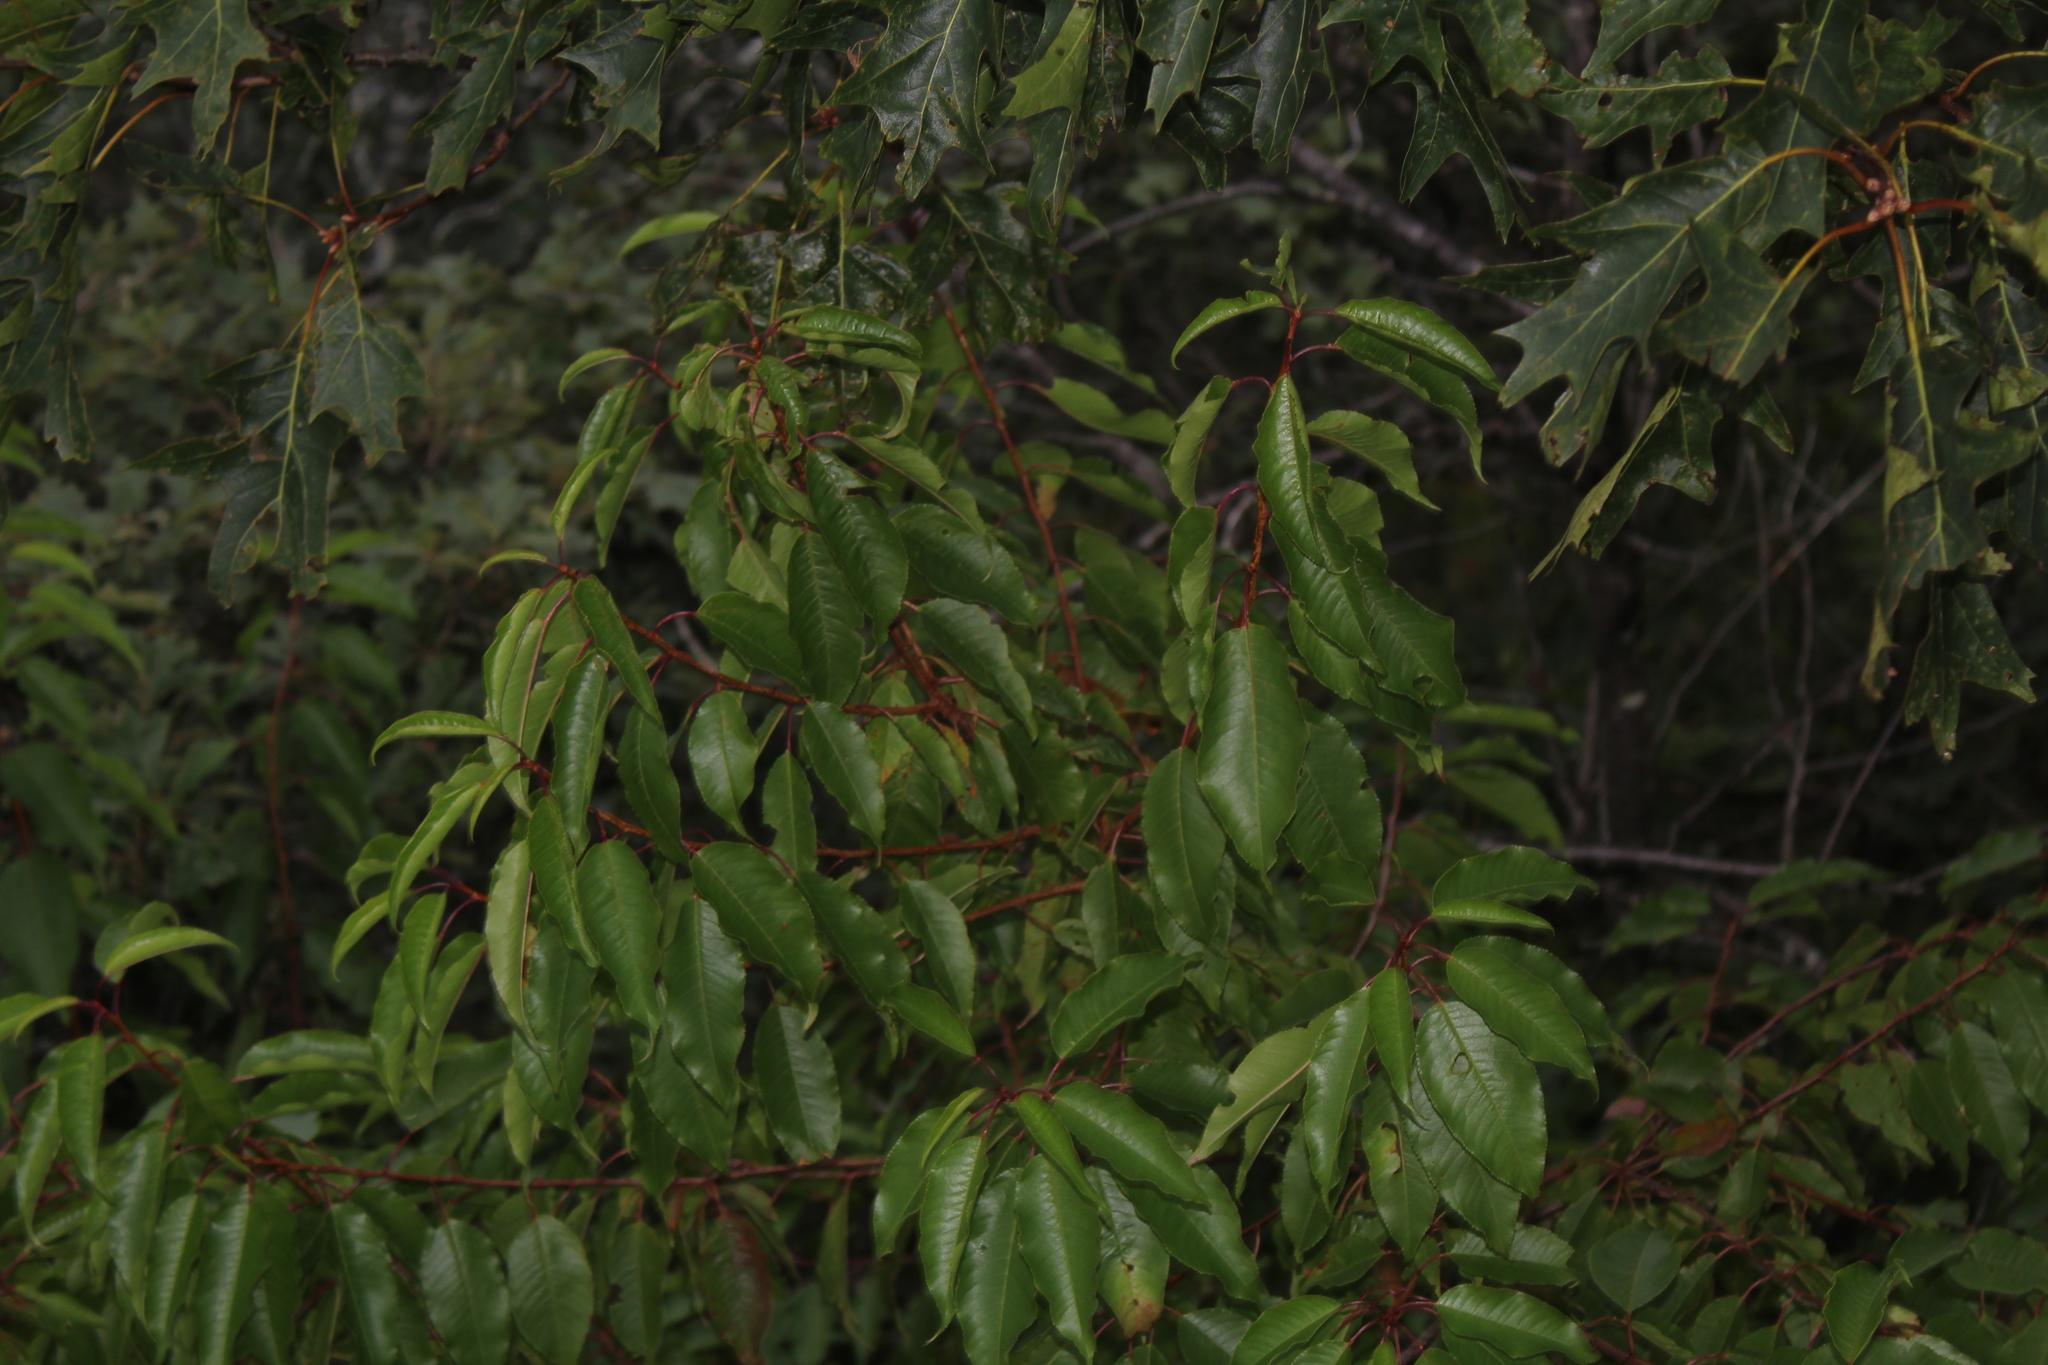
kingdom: Plantae
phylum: Tracheophyta
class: Magnoliopsida
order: Rosales
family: Rosaceae
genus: Prunus
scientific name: Prunus pensylvanica
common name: Pin cherry
